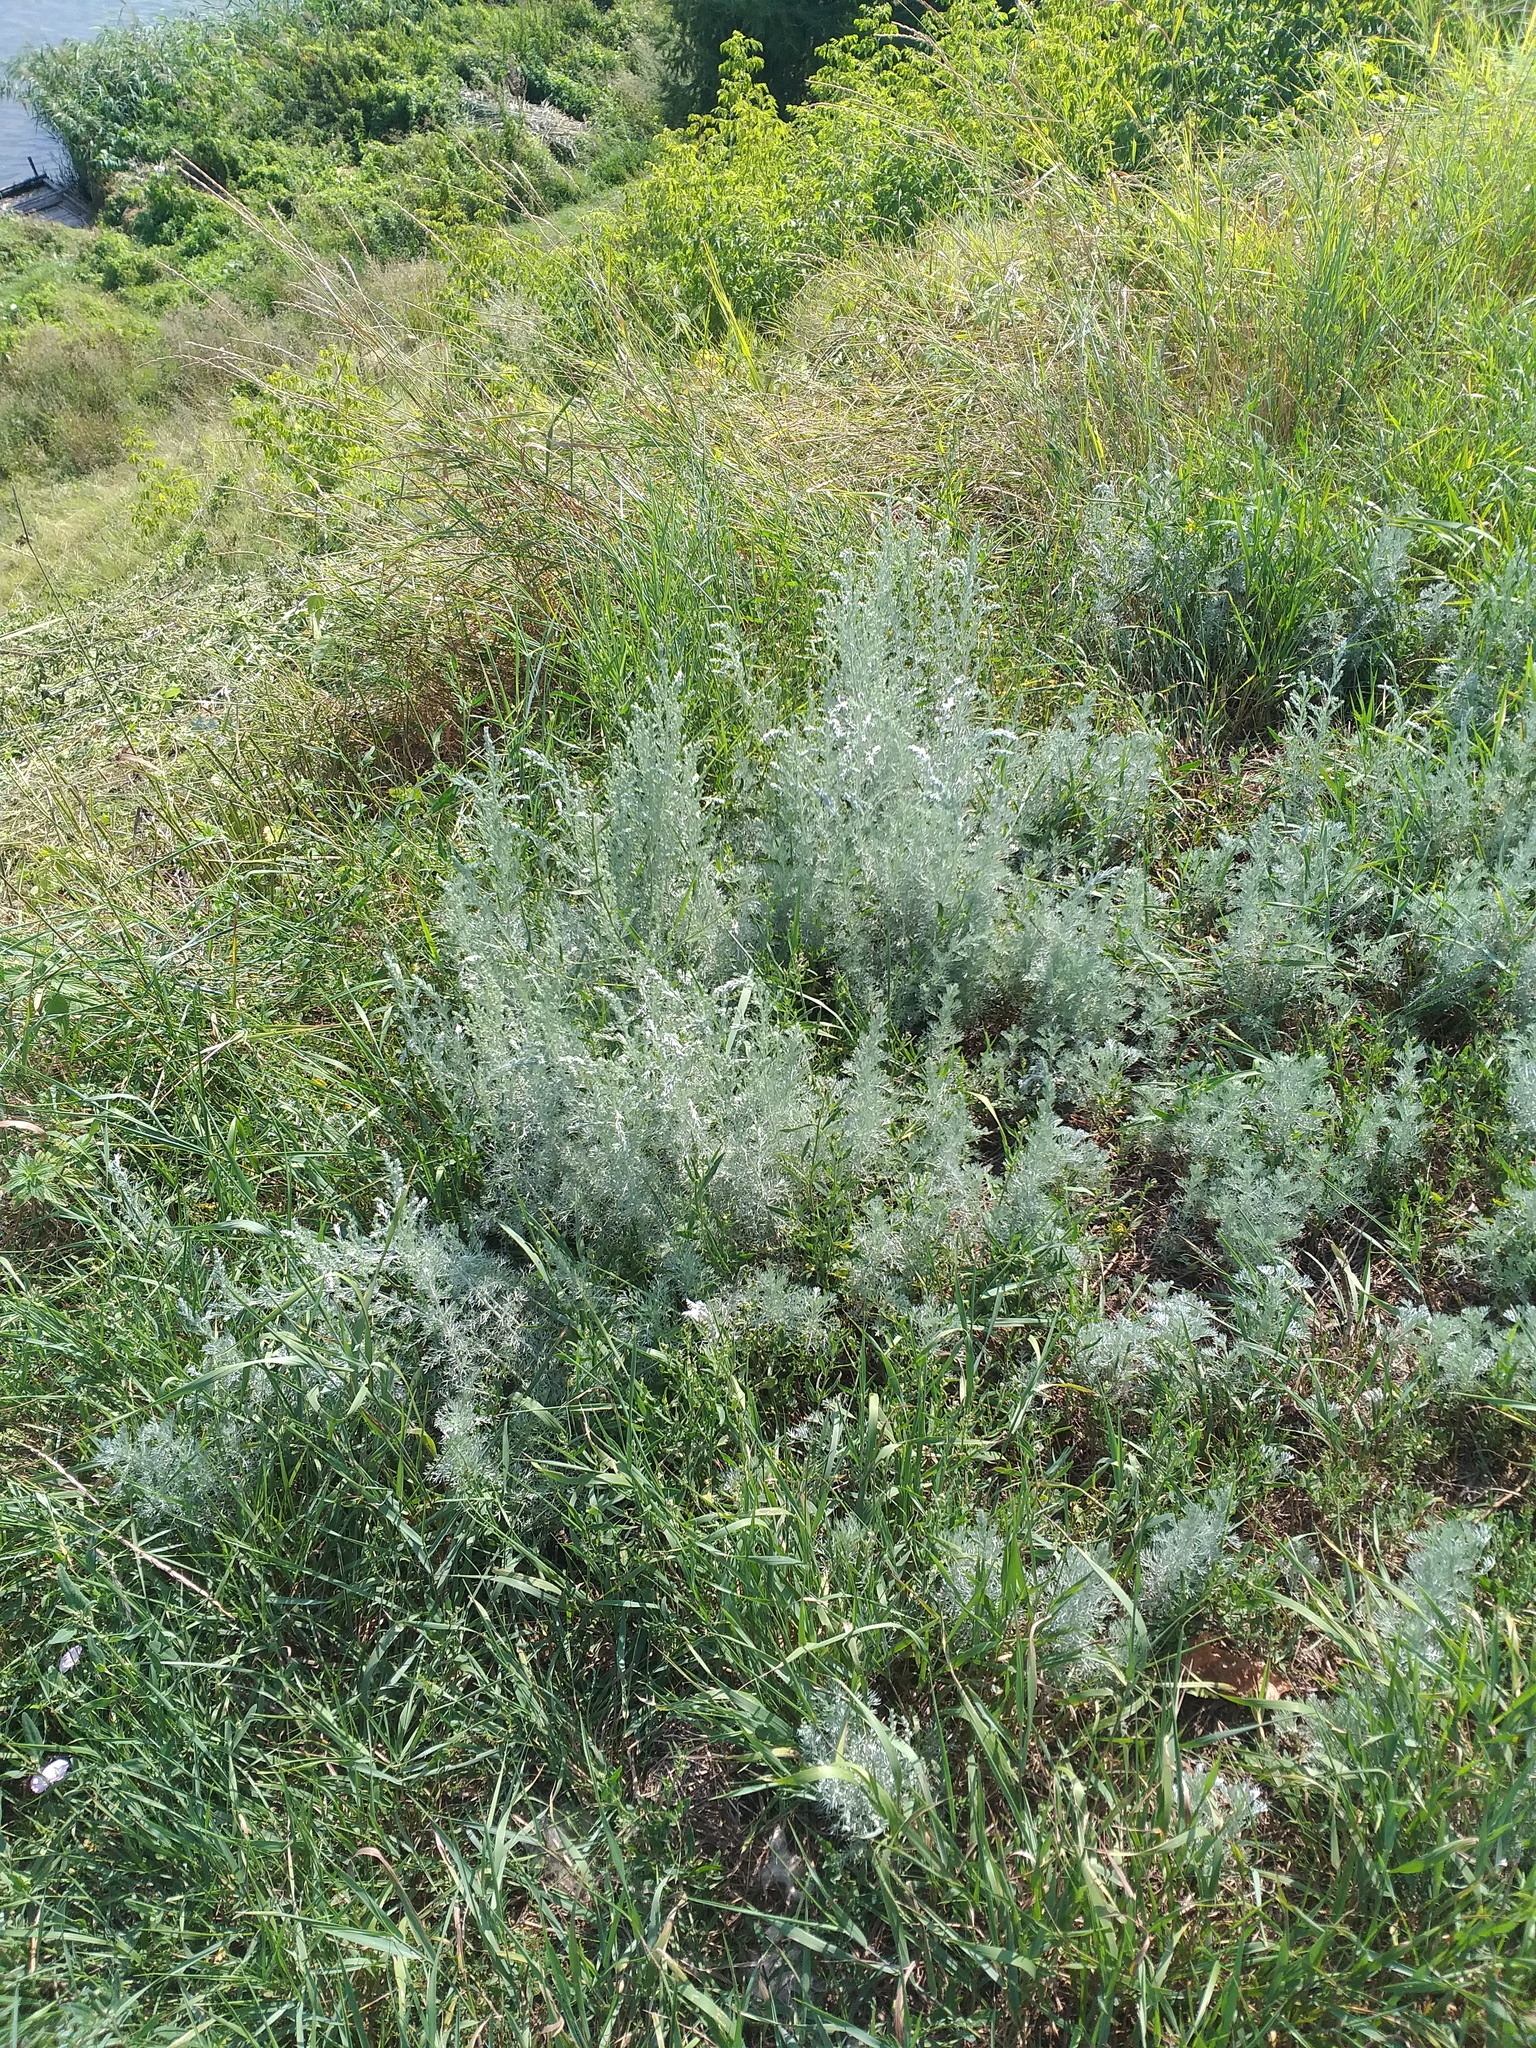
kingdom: Plantae
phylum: Tracheophyta
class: Magnoliopsida
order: Asterales
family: Asteraceae
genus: Artemisia
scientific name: Artemisia austriaca
